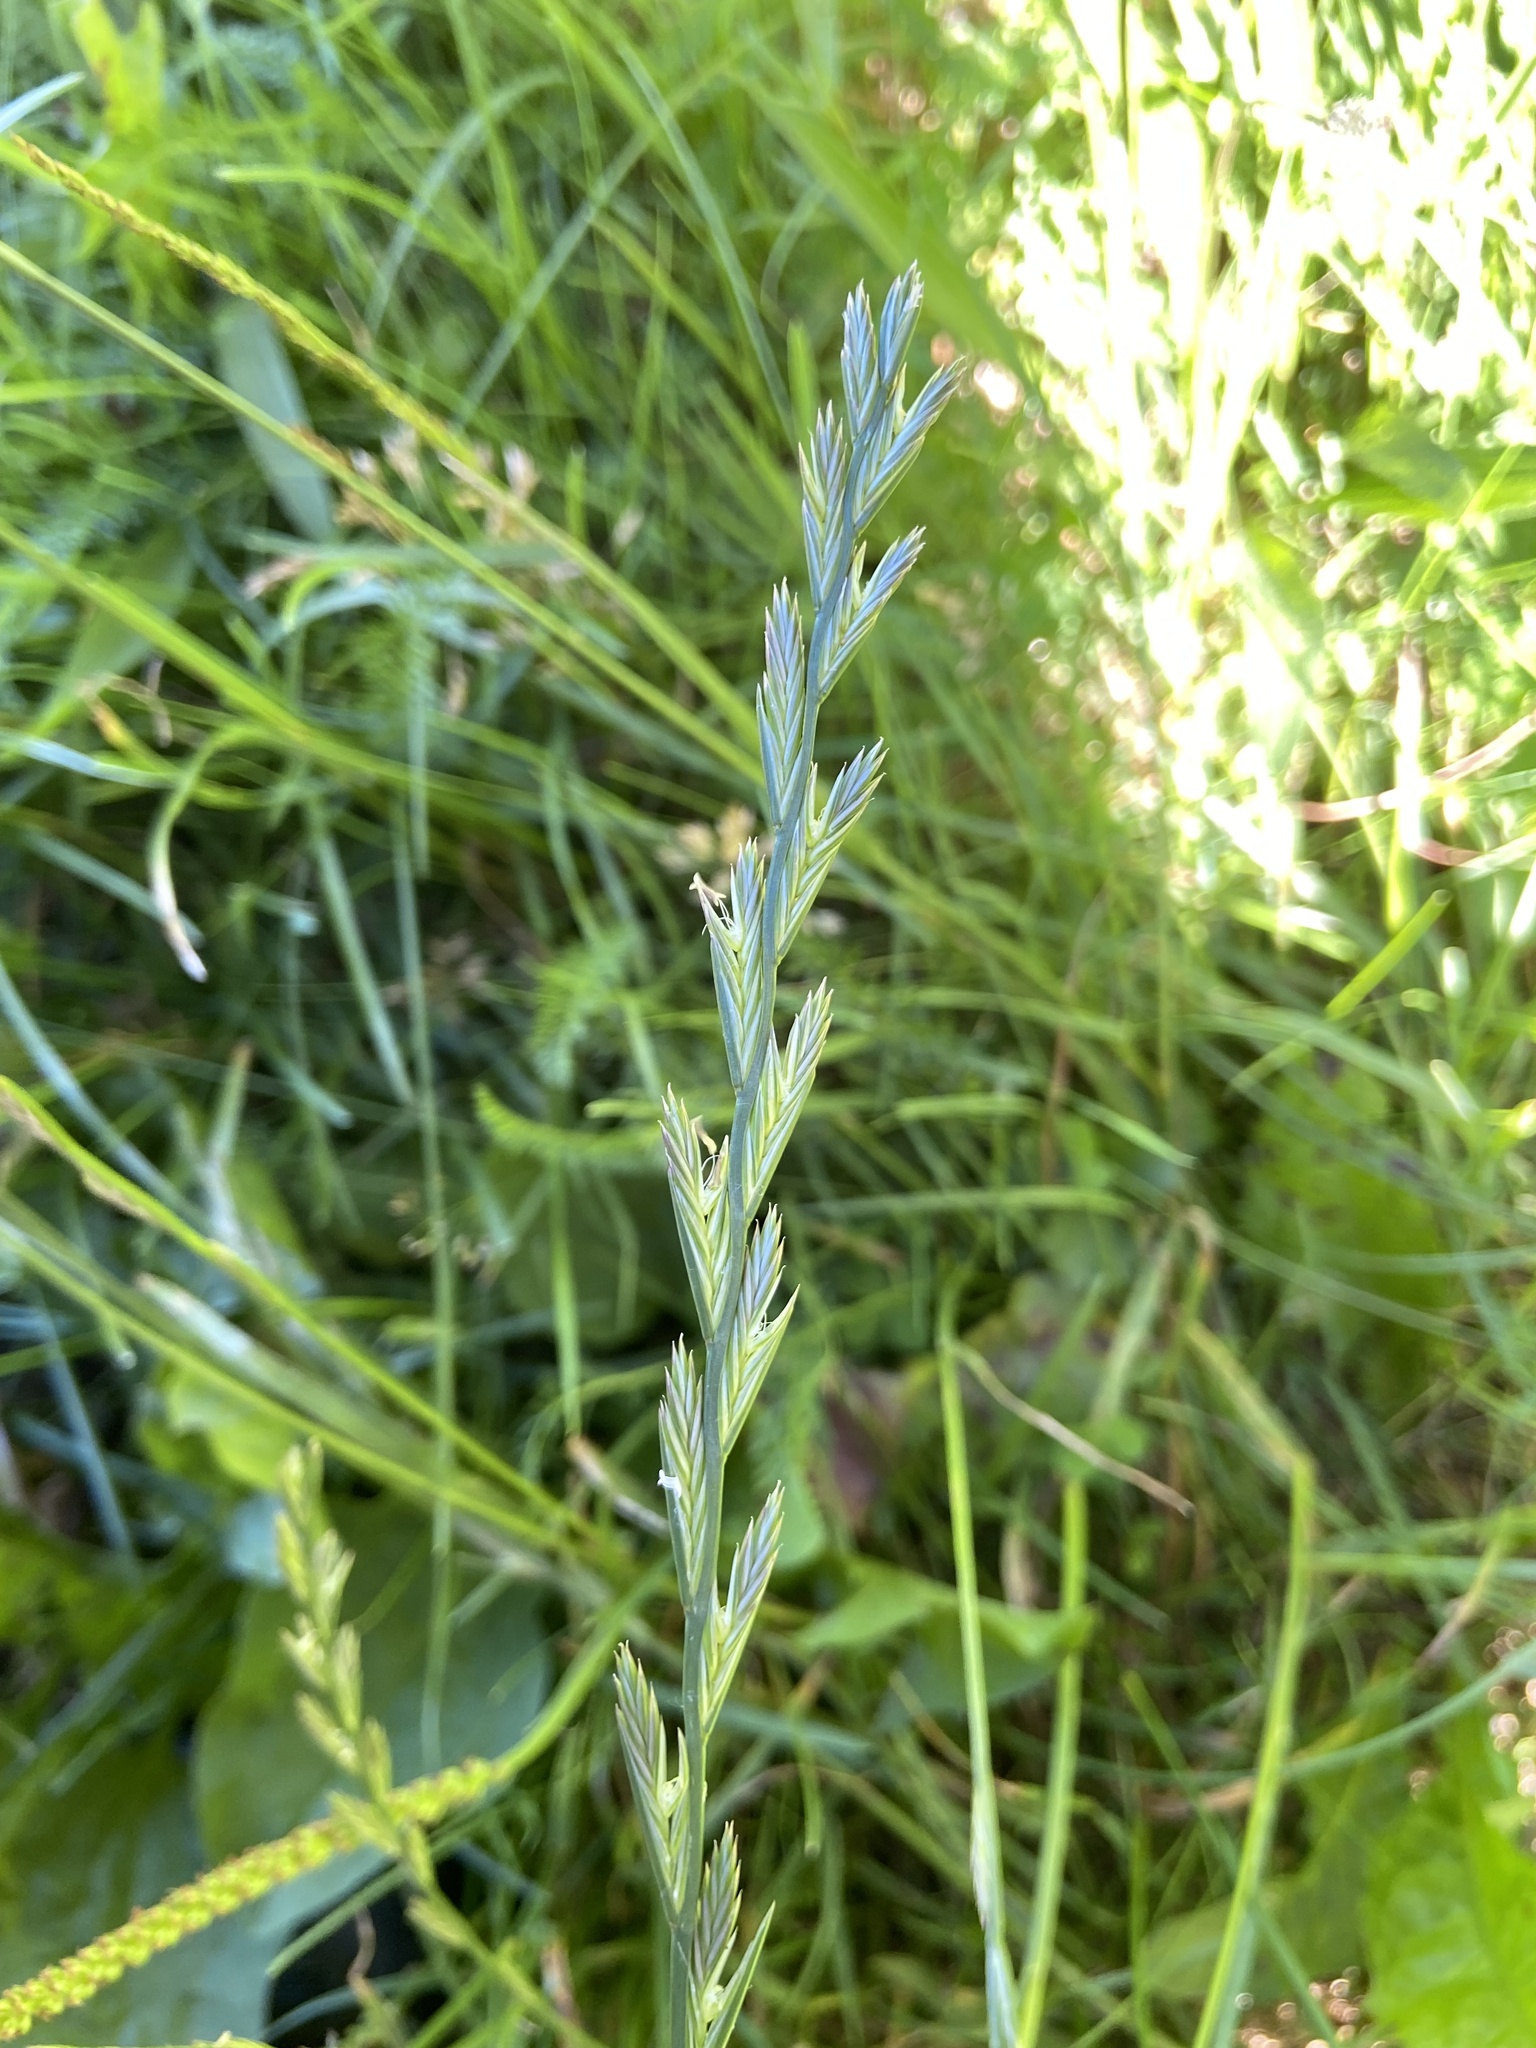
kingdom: Plantae
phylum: Tracheophyta
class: Liliopsida
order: Poales
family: Poaceae
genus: Lolium
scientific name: Lolium perenne
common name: Perennial ryegrass
